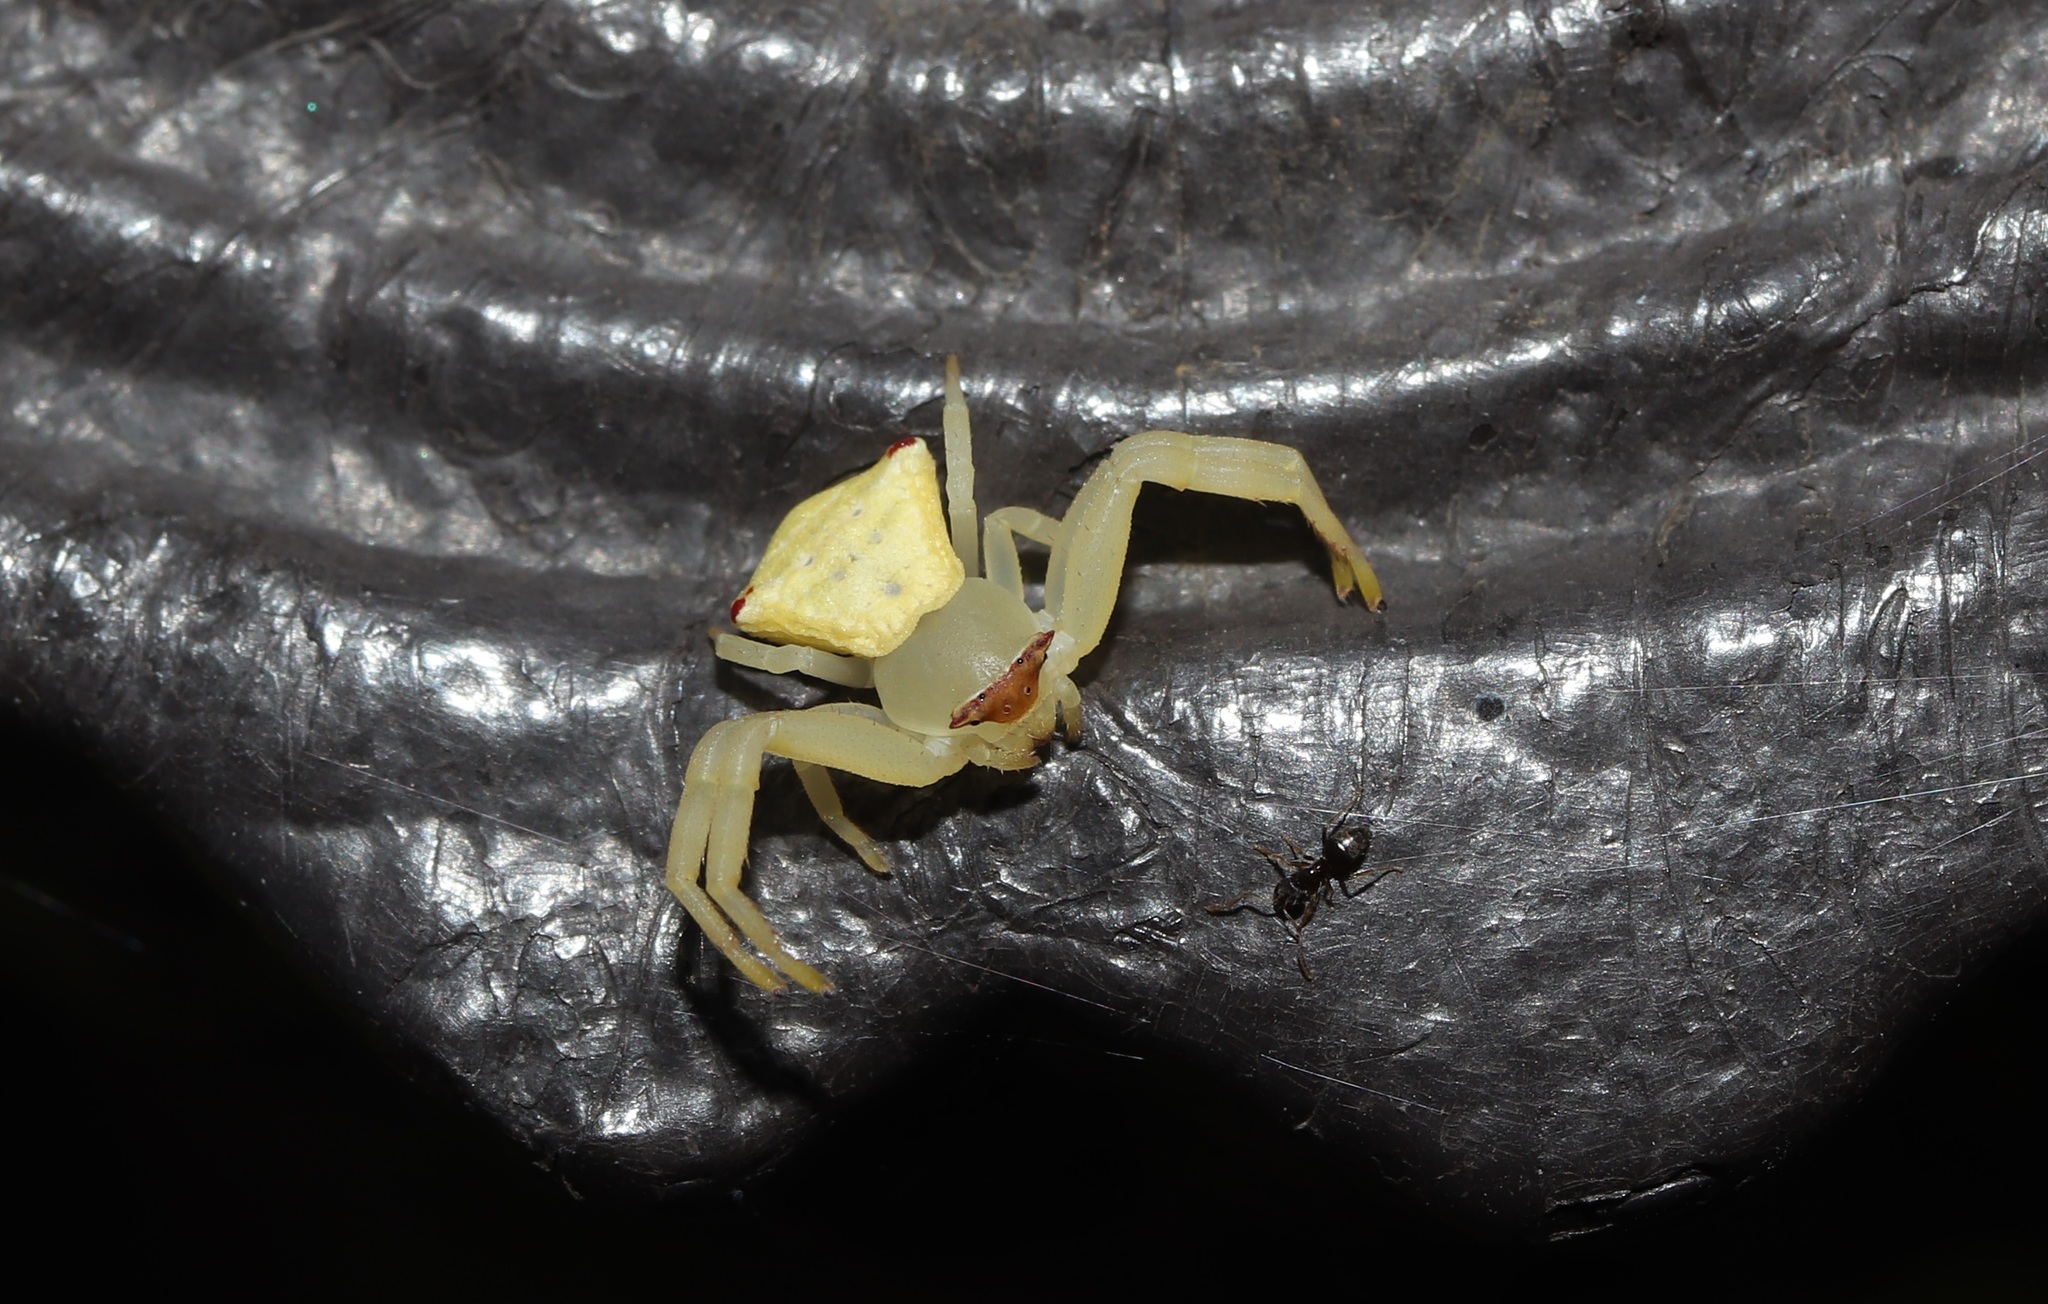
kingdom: Animalia
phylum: Arthropoda
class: Arachnida
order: Araneae
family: Thomisidae
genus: Thomisus
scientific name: Thomisus labefactus
